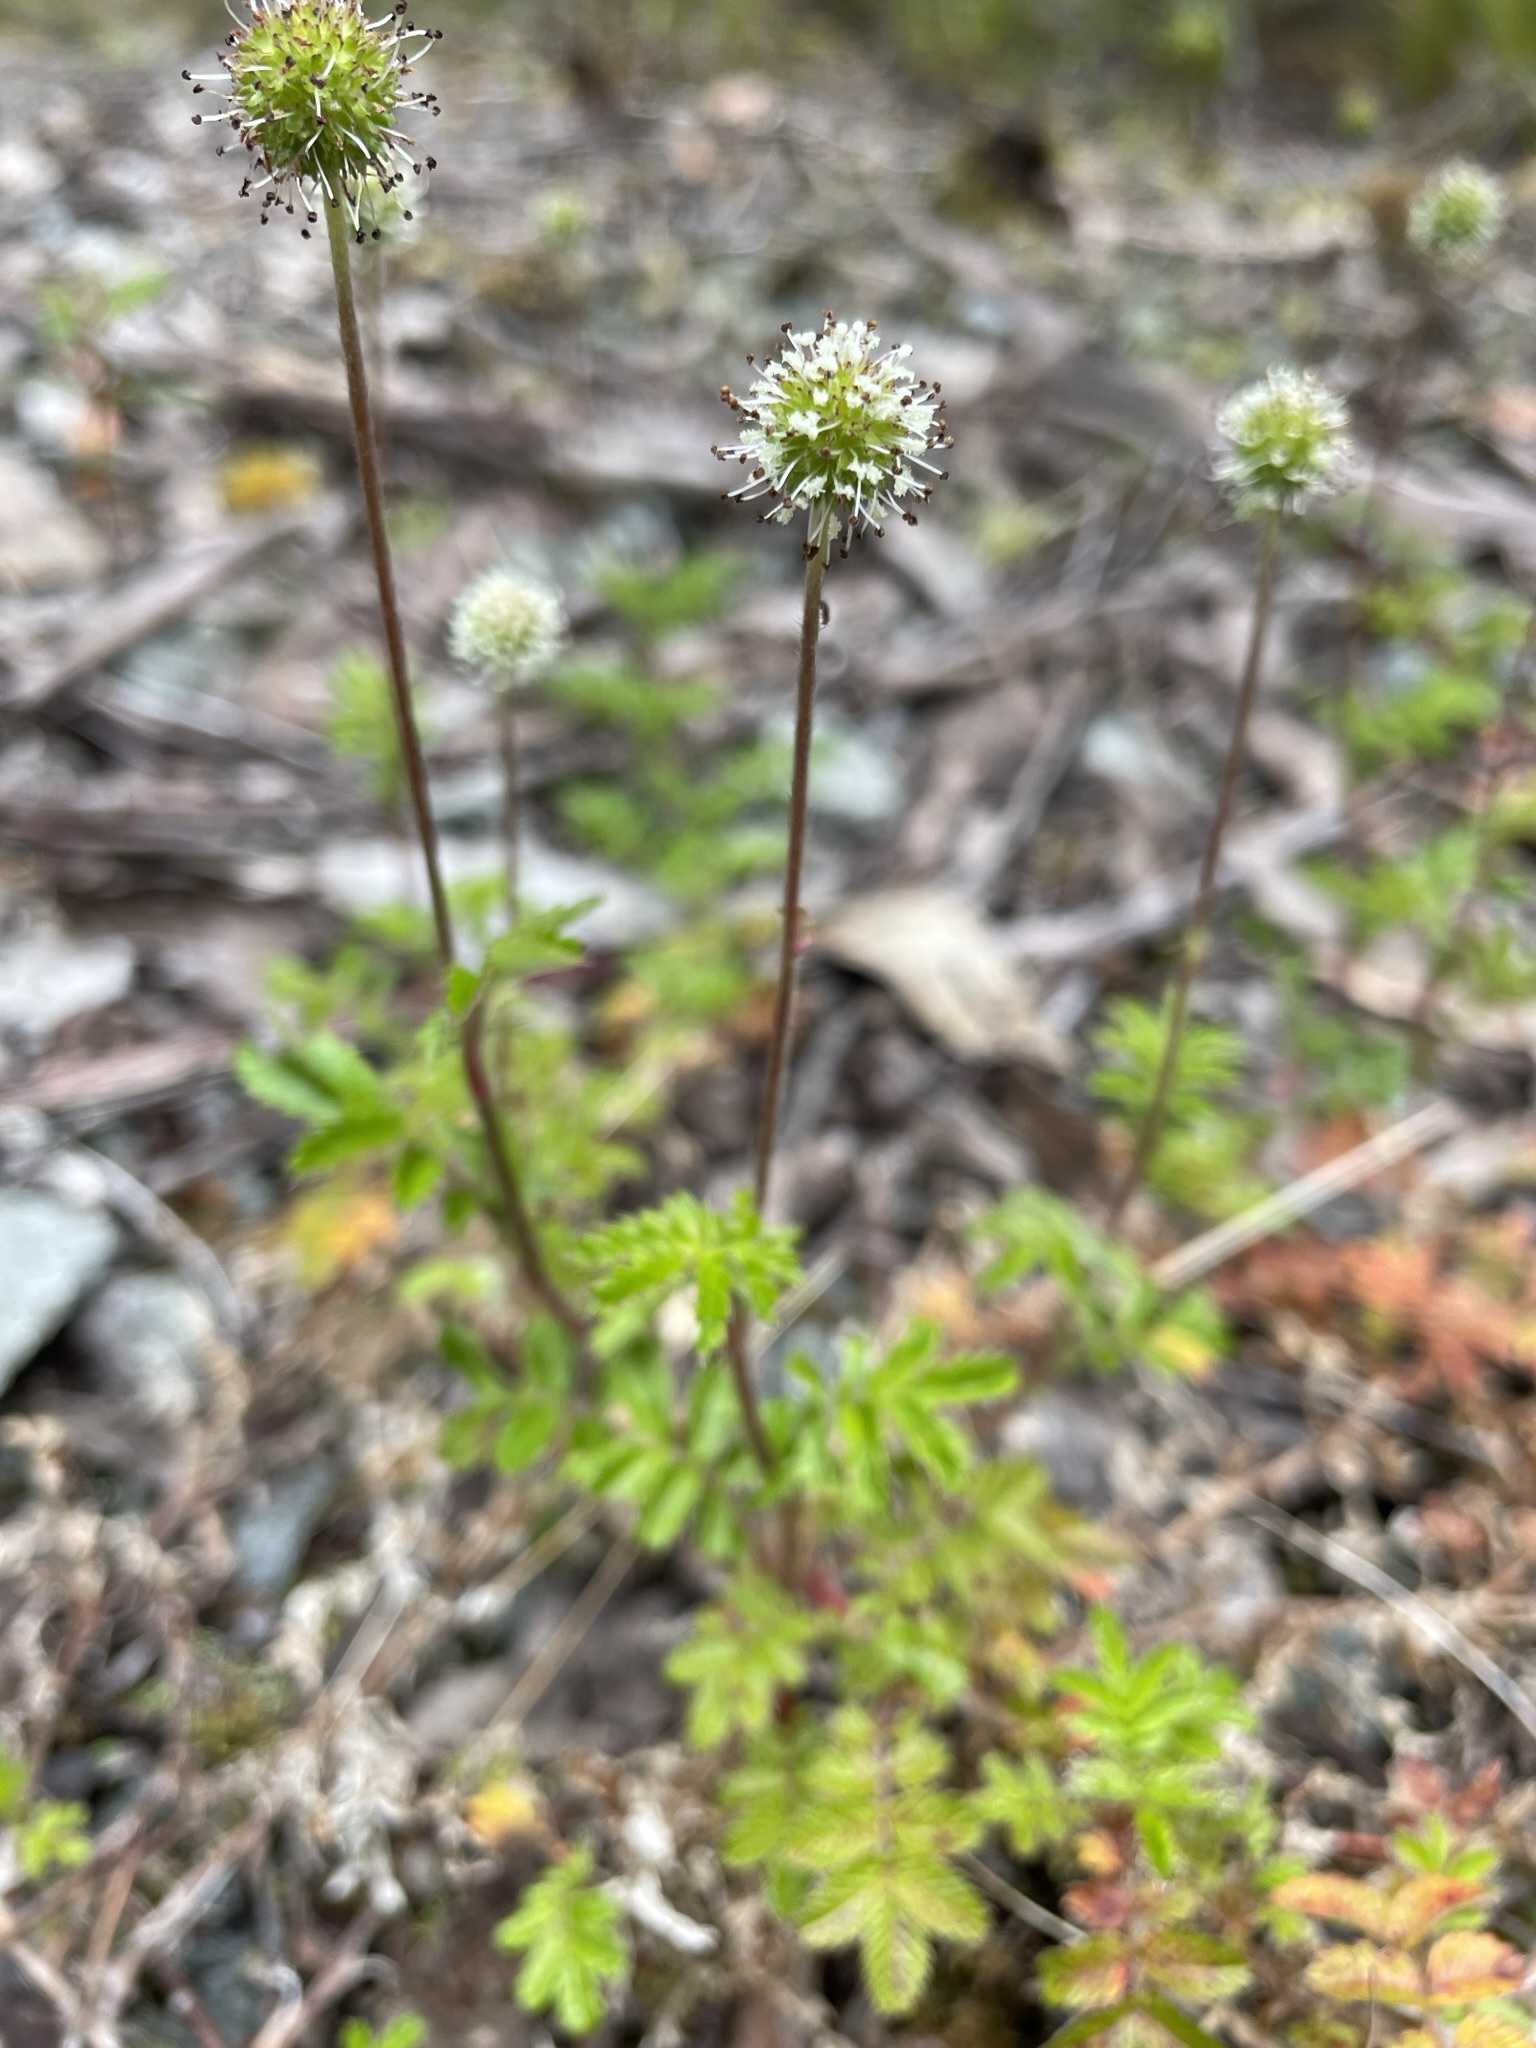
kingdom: Plantae
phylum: Tracheophyta
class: Magnoliopsida
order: Rosales
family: Rosaceae
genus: Acaena
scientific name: Acaena novae-zelandiae
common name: Pirri-pirri-bur
